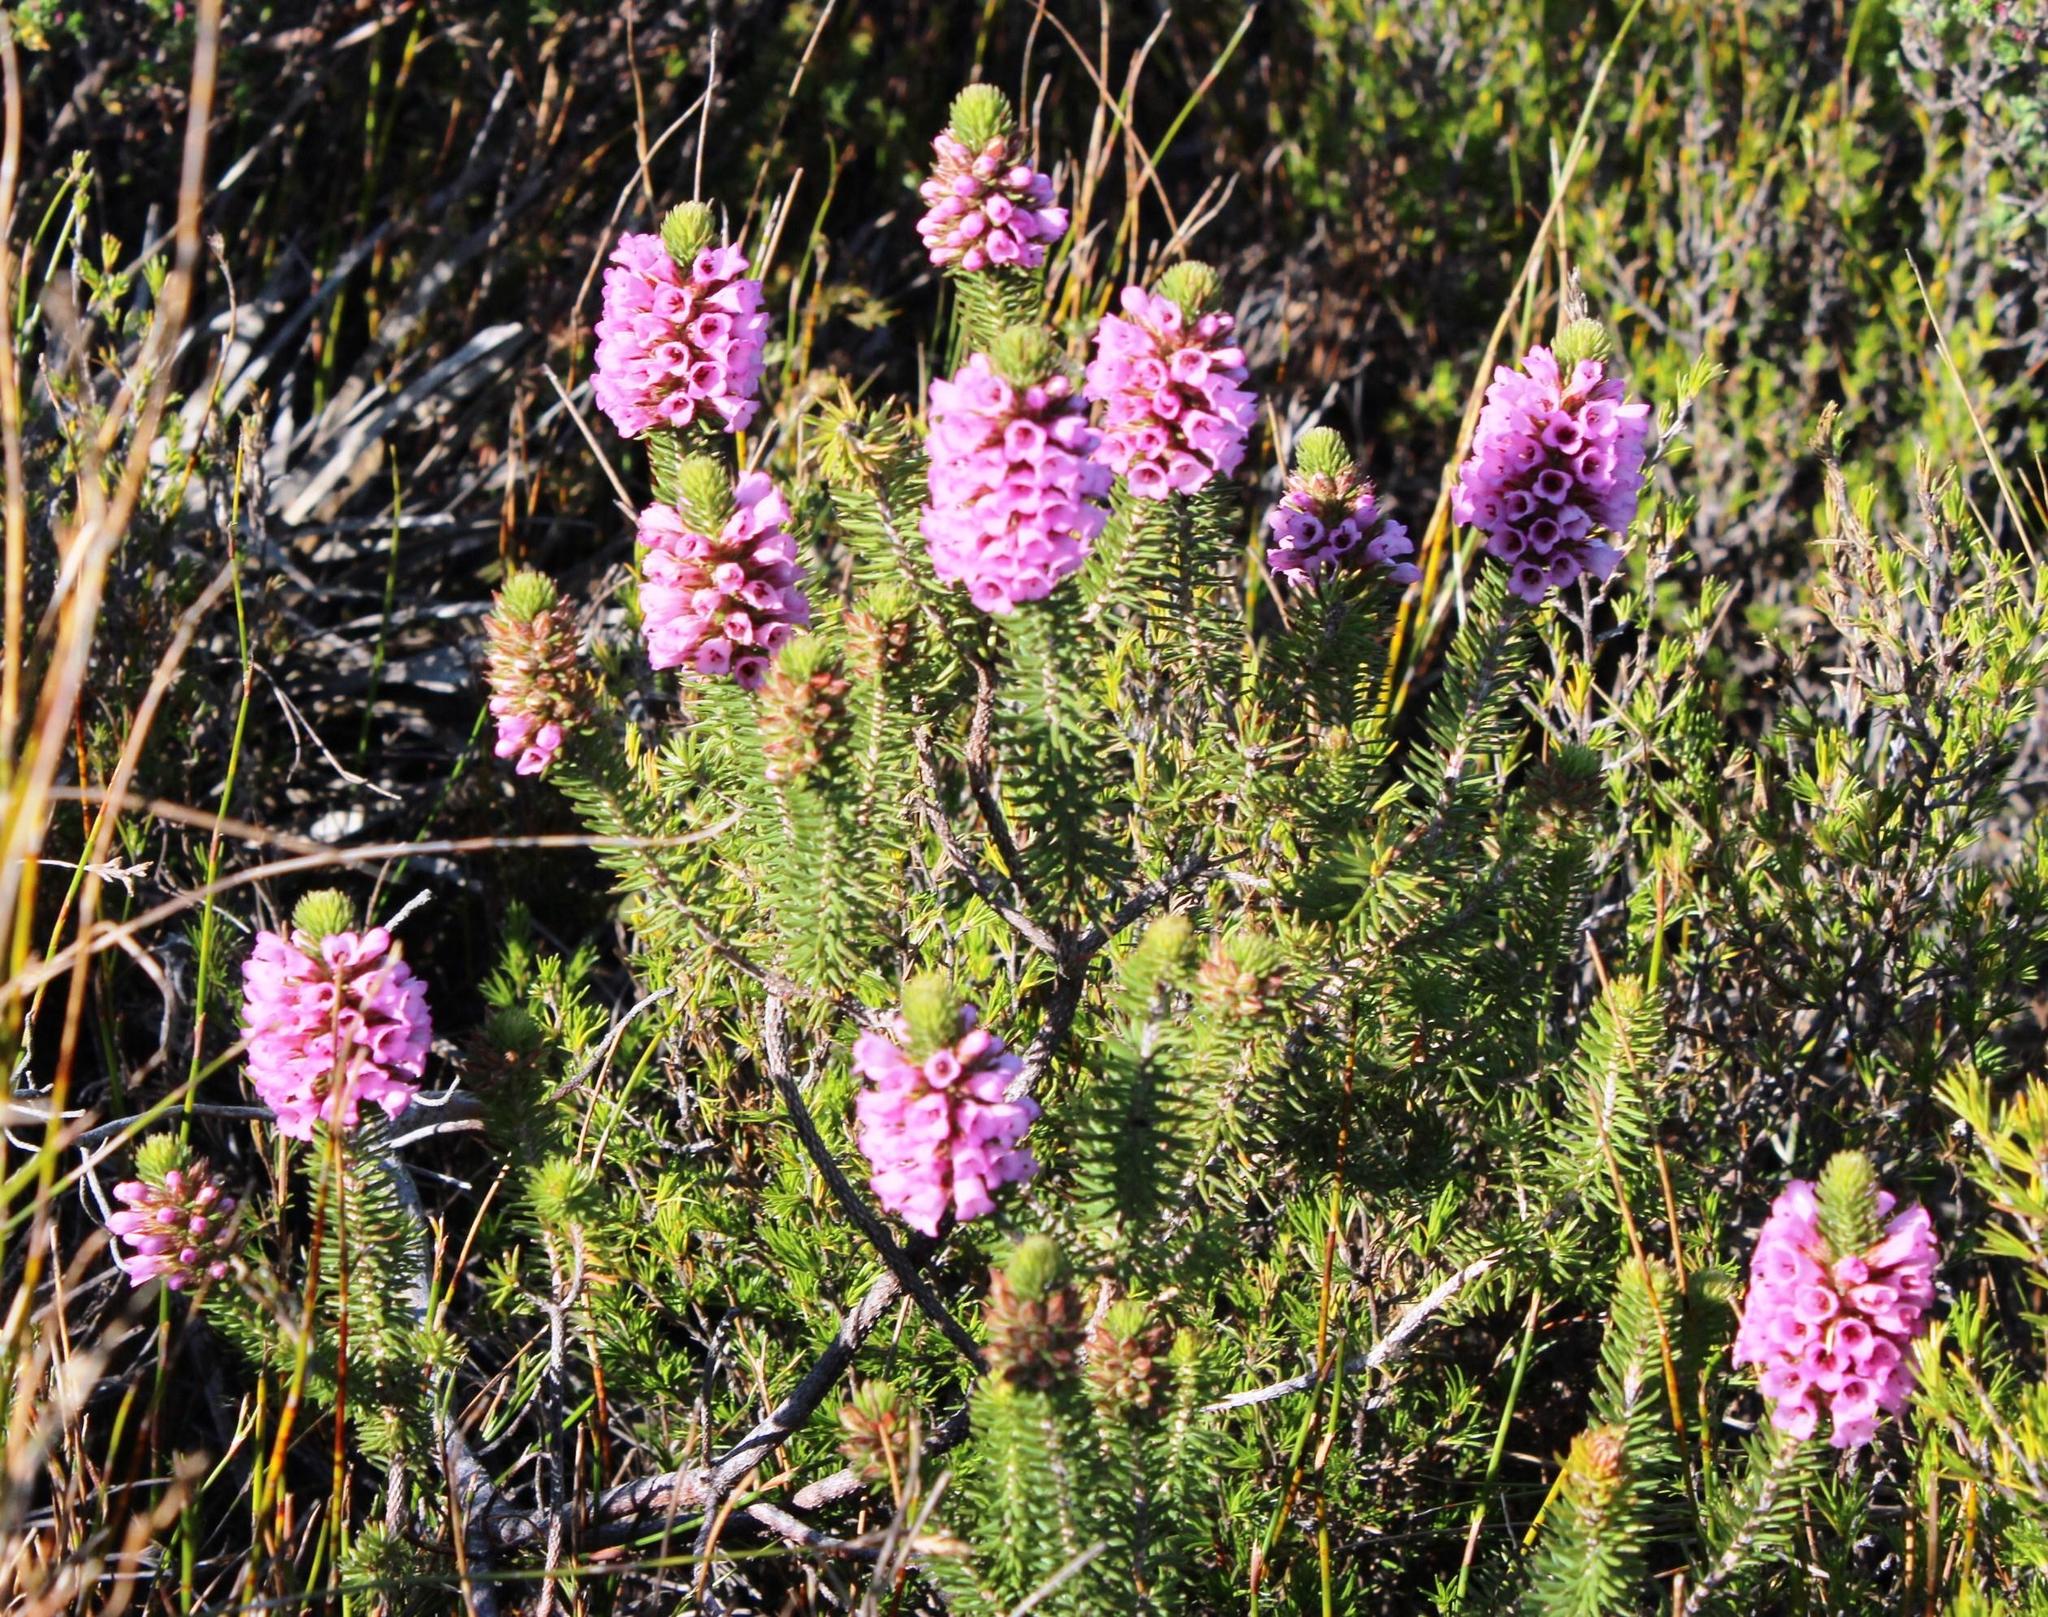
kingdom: Plantae
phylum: Tracheophyta
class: Magnoliopsida
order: Ericales
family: Ericaceae
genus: Erica
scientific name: Erica abietina
